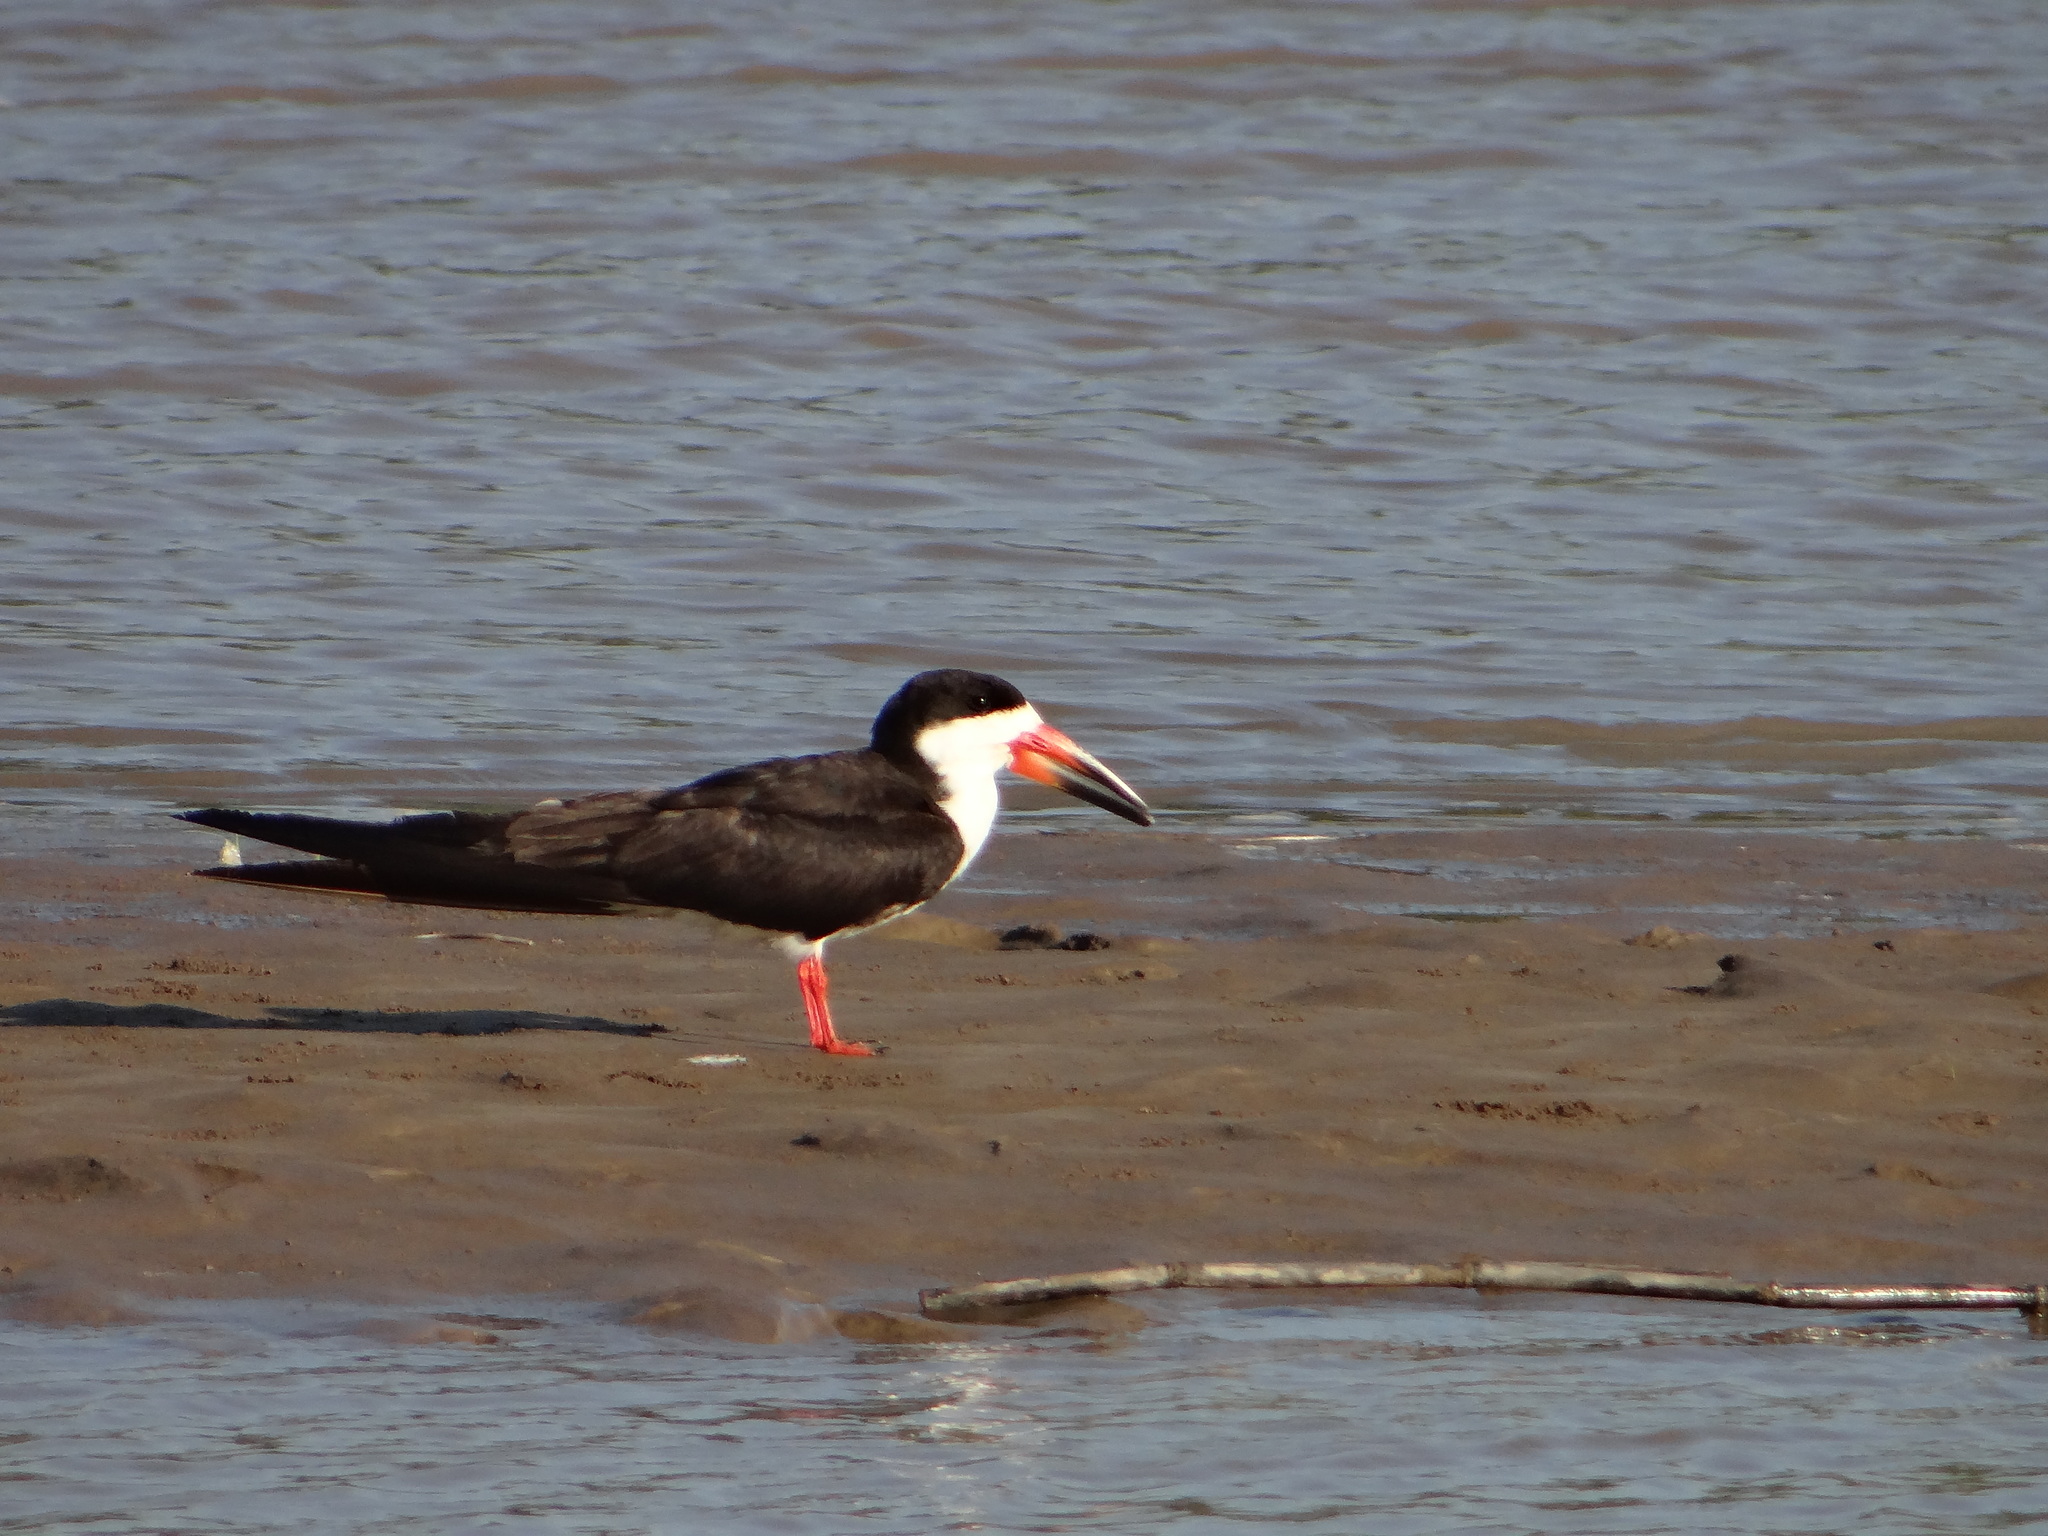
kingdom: Animalia
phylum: Chordata
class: Aves
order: Charadriiformes
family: Laridae
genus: Rynchops
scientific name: Rynchops niger
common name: Black skimmer
